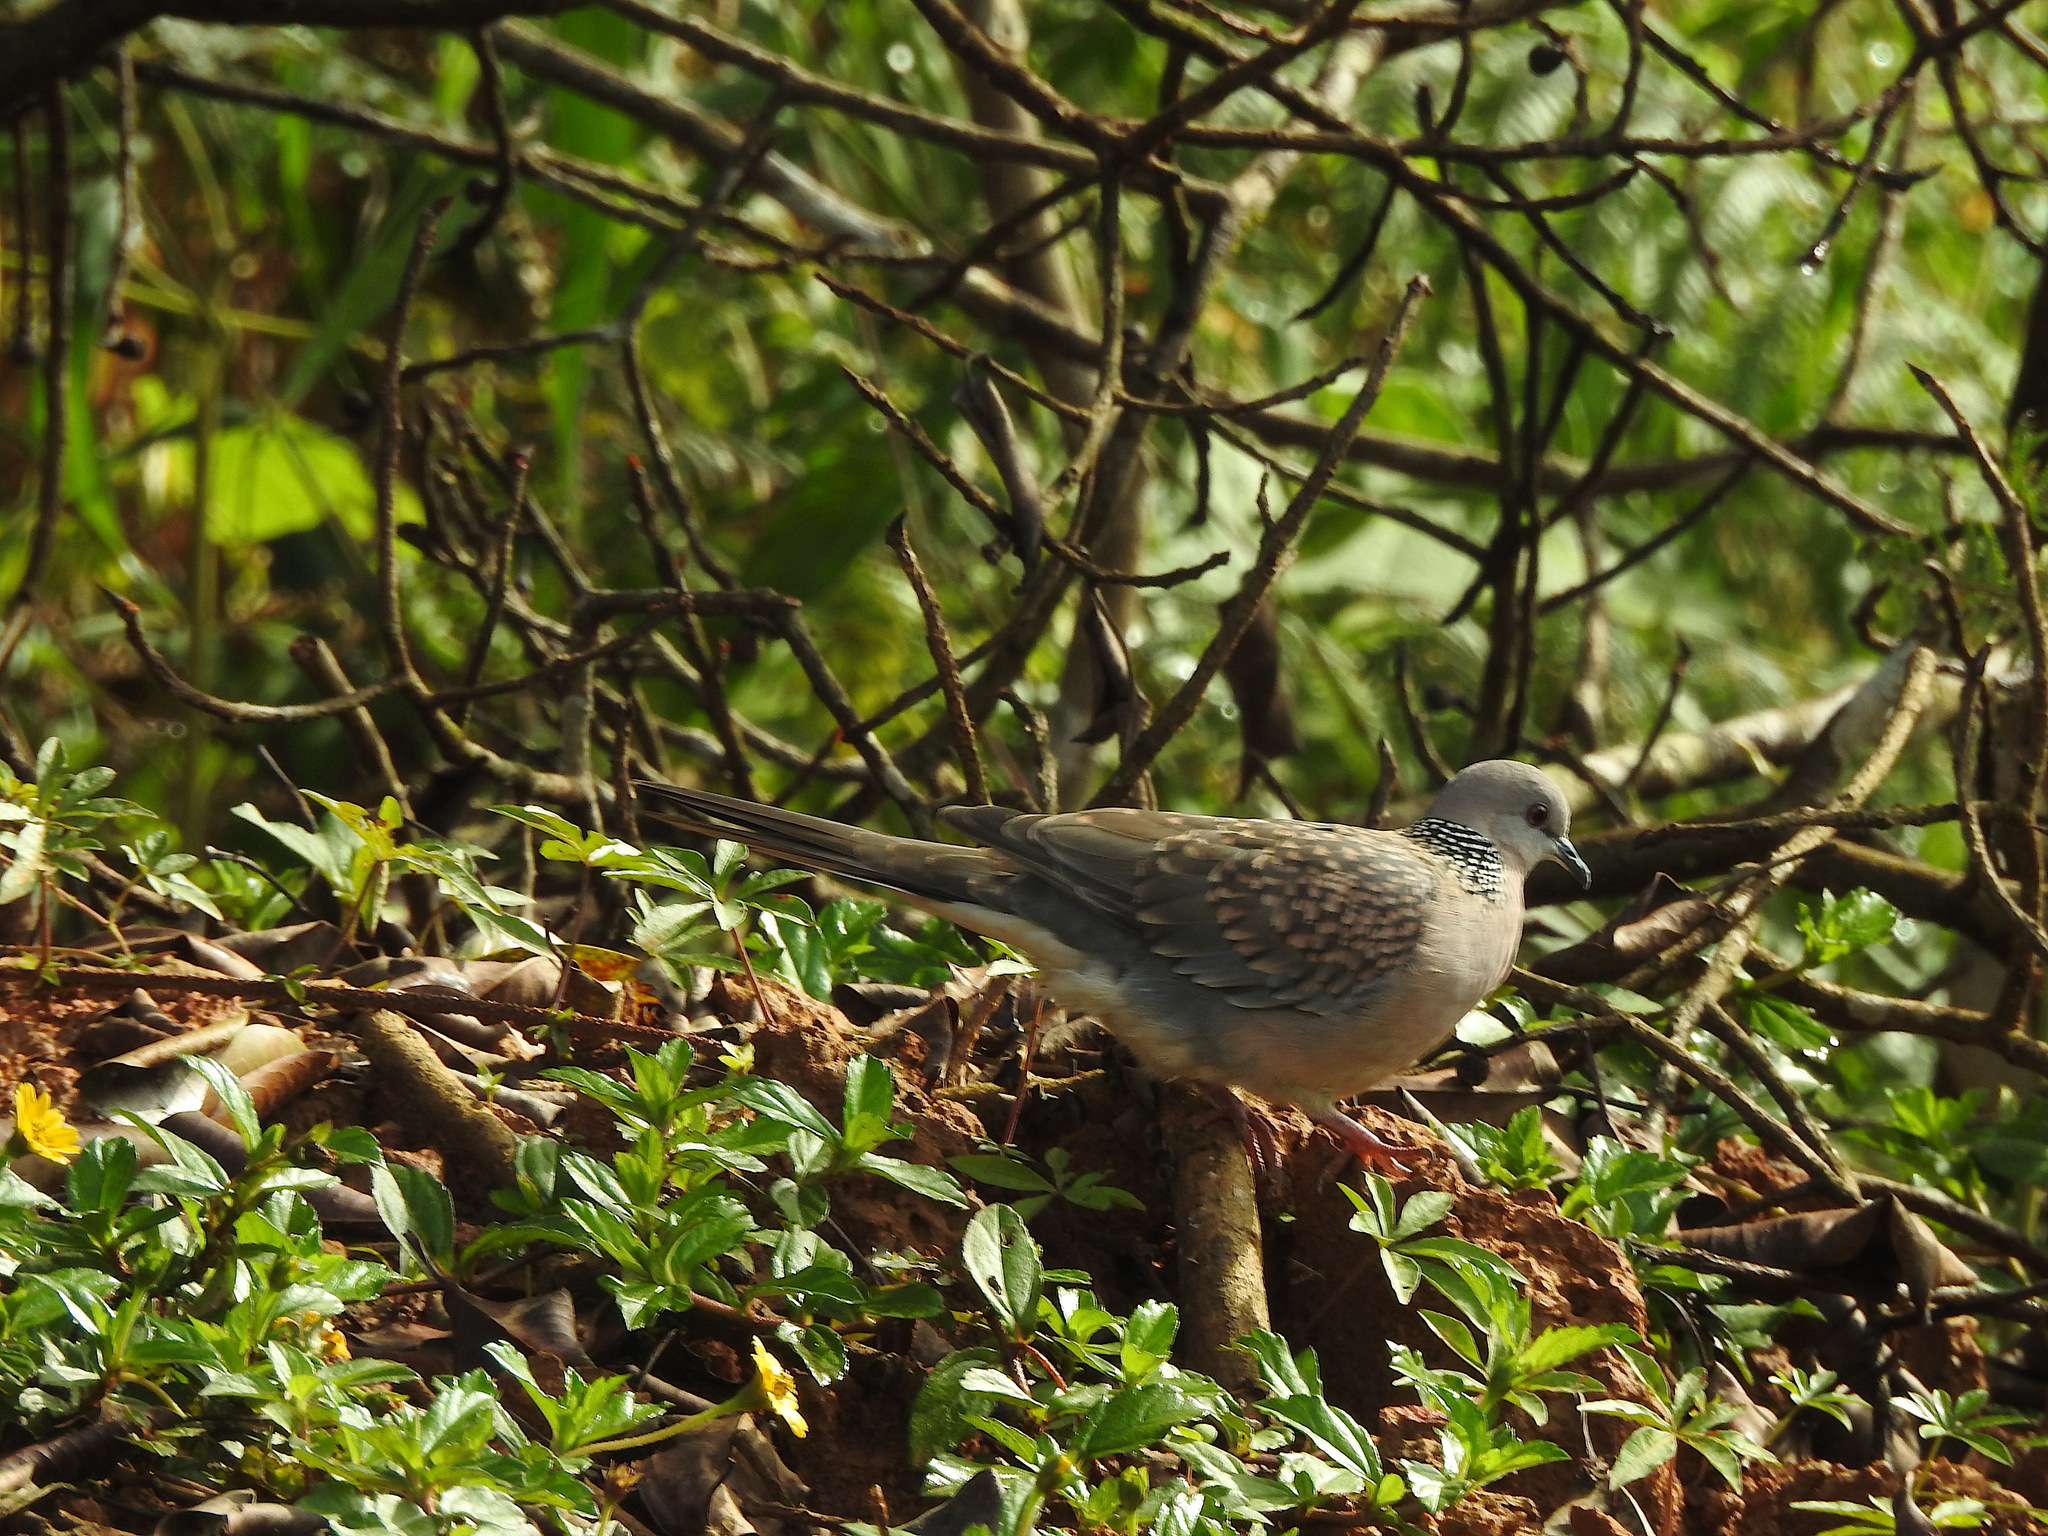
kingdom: Animalia
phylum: Chordata
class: Aves
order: Columbiformes
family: Columbidae
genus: Spilopelia
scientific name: Spilopelia chinensis
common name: Spotted dove
